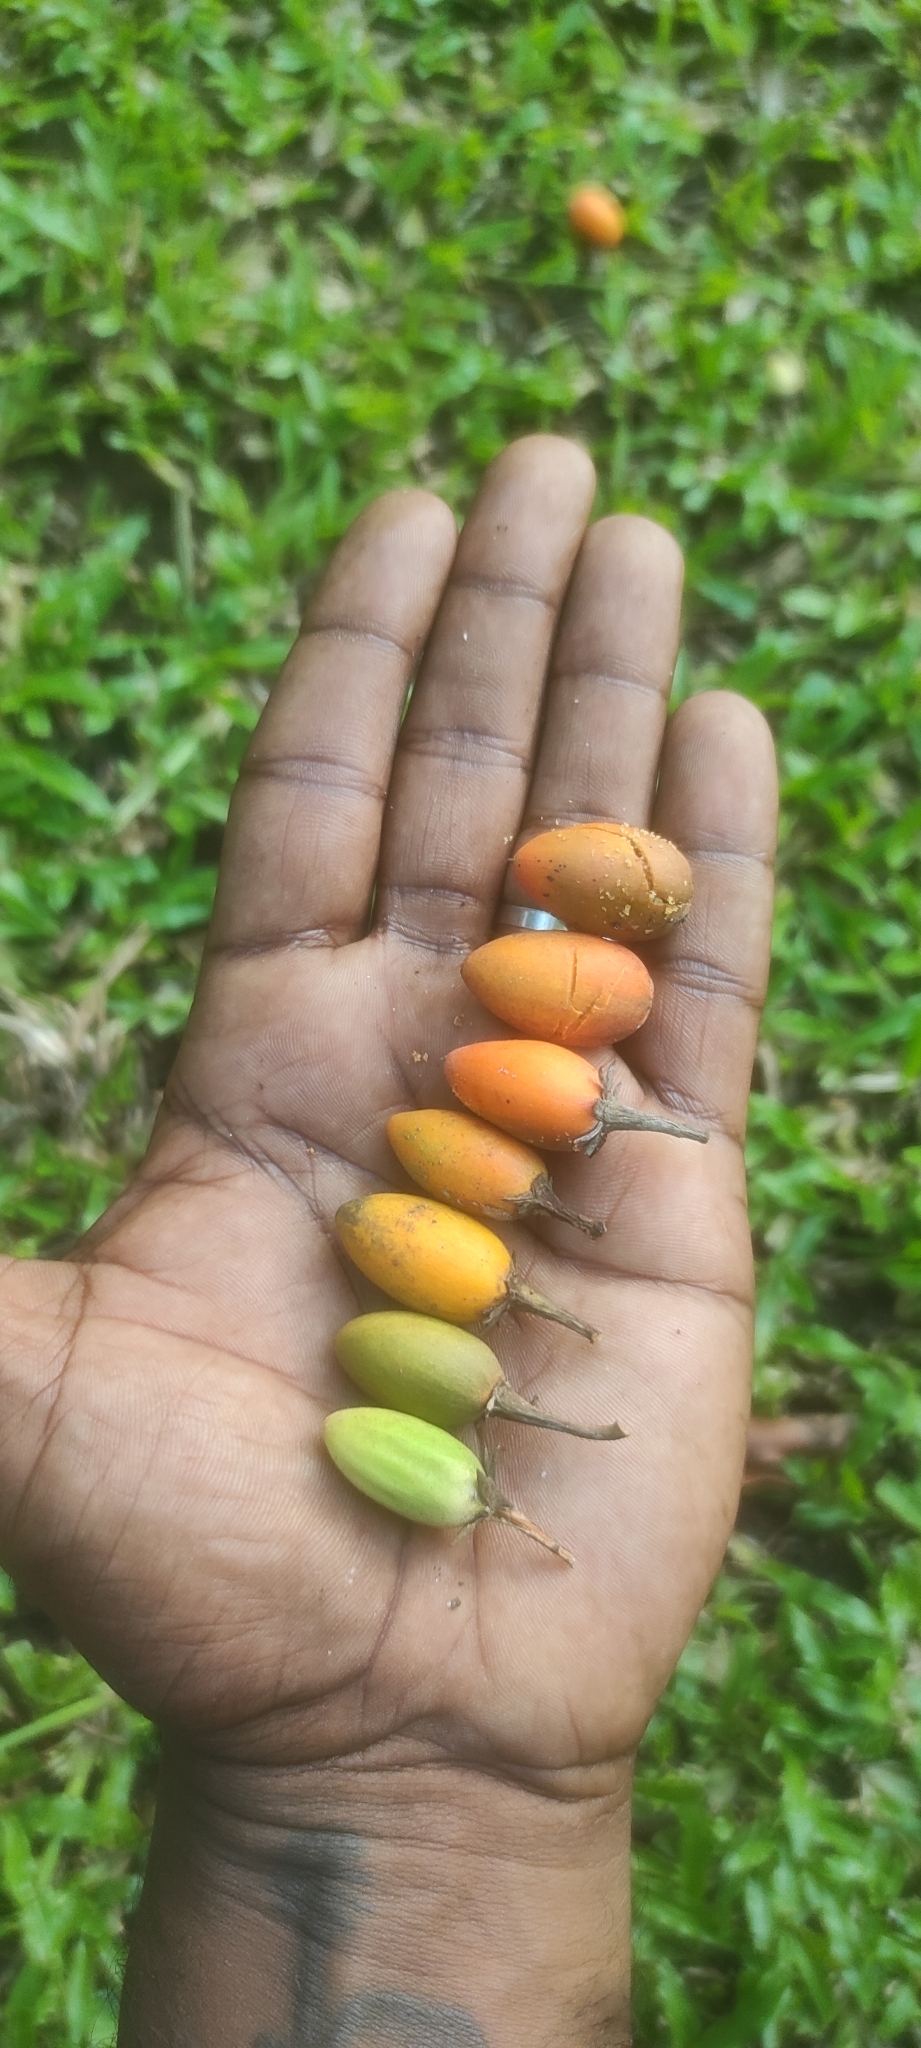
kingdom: Plantae
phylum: Tracheophyta
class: Magnoliopsida
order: Ericales
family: Sapotaceae
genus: Mimusops
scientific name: Mimusops elengi
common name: Spanish cherry
